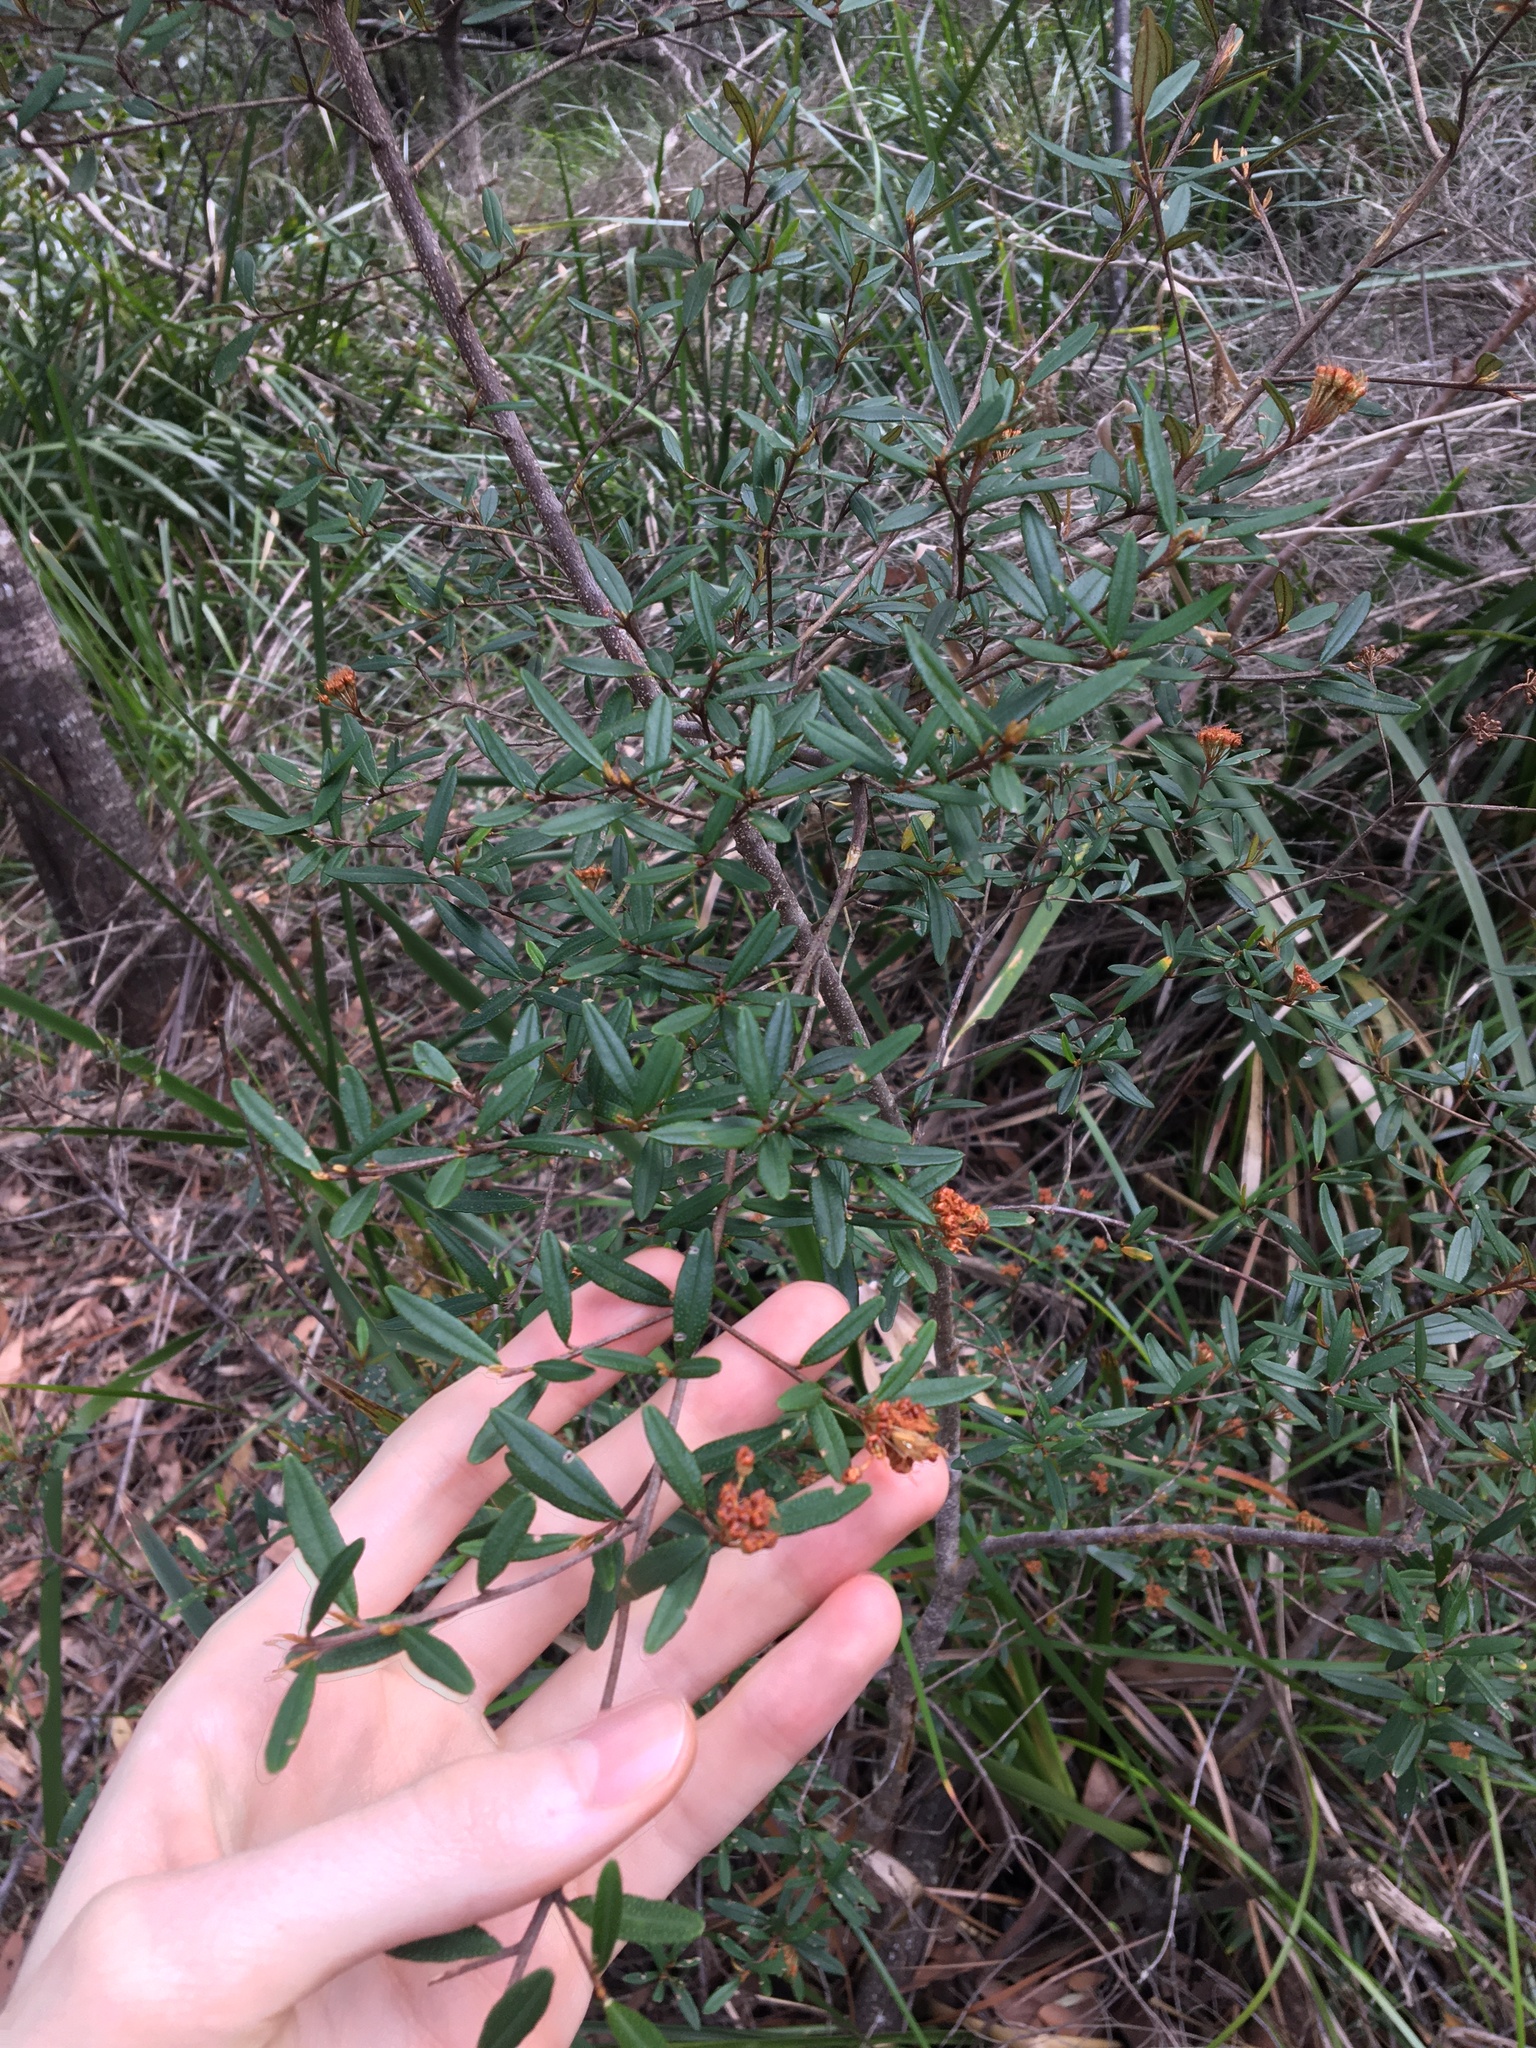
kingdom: Plantae
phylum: Tracheophyta
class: Magnoliopsida
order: Sapindales
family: Rutaceae
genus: Phebalium
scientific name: Phebalium squamulosum
